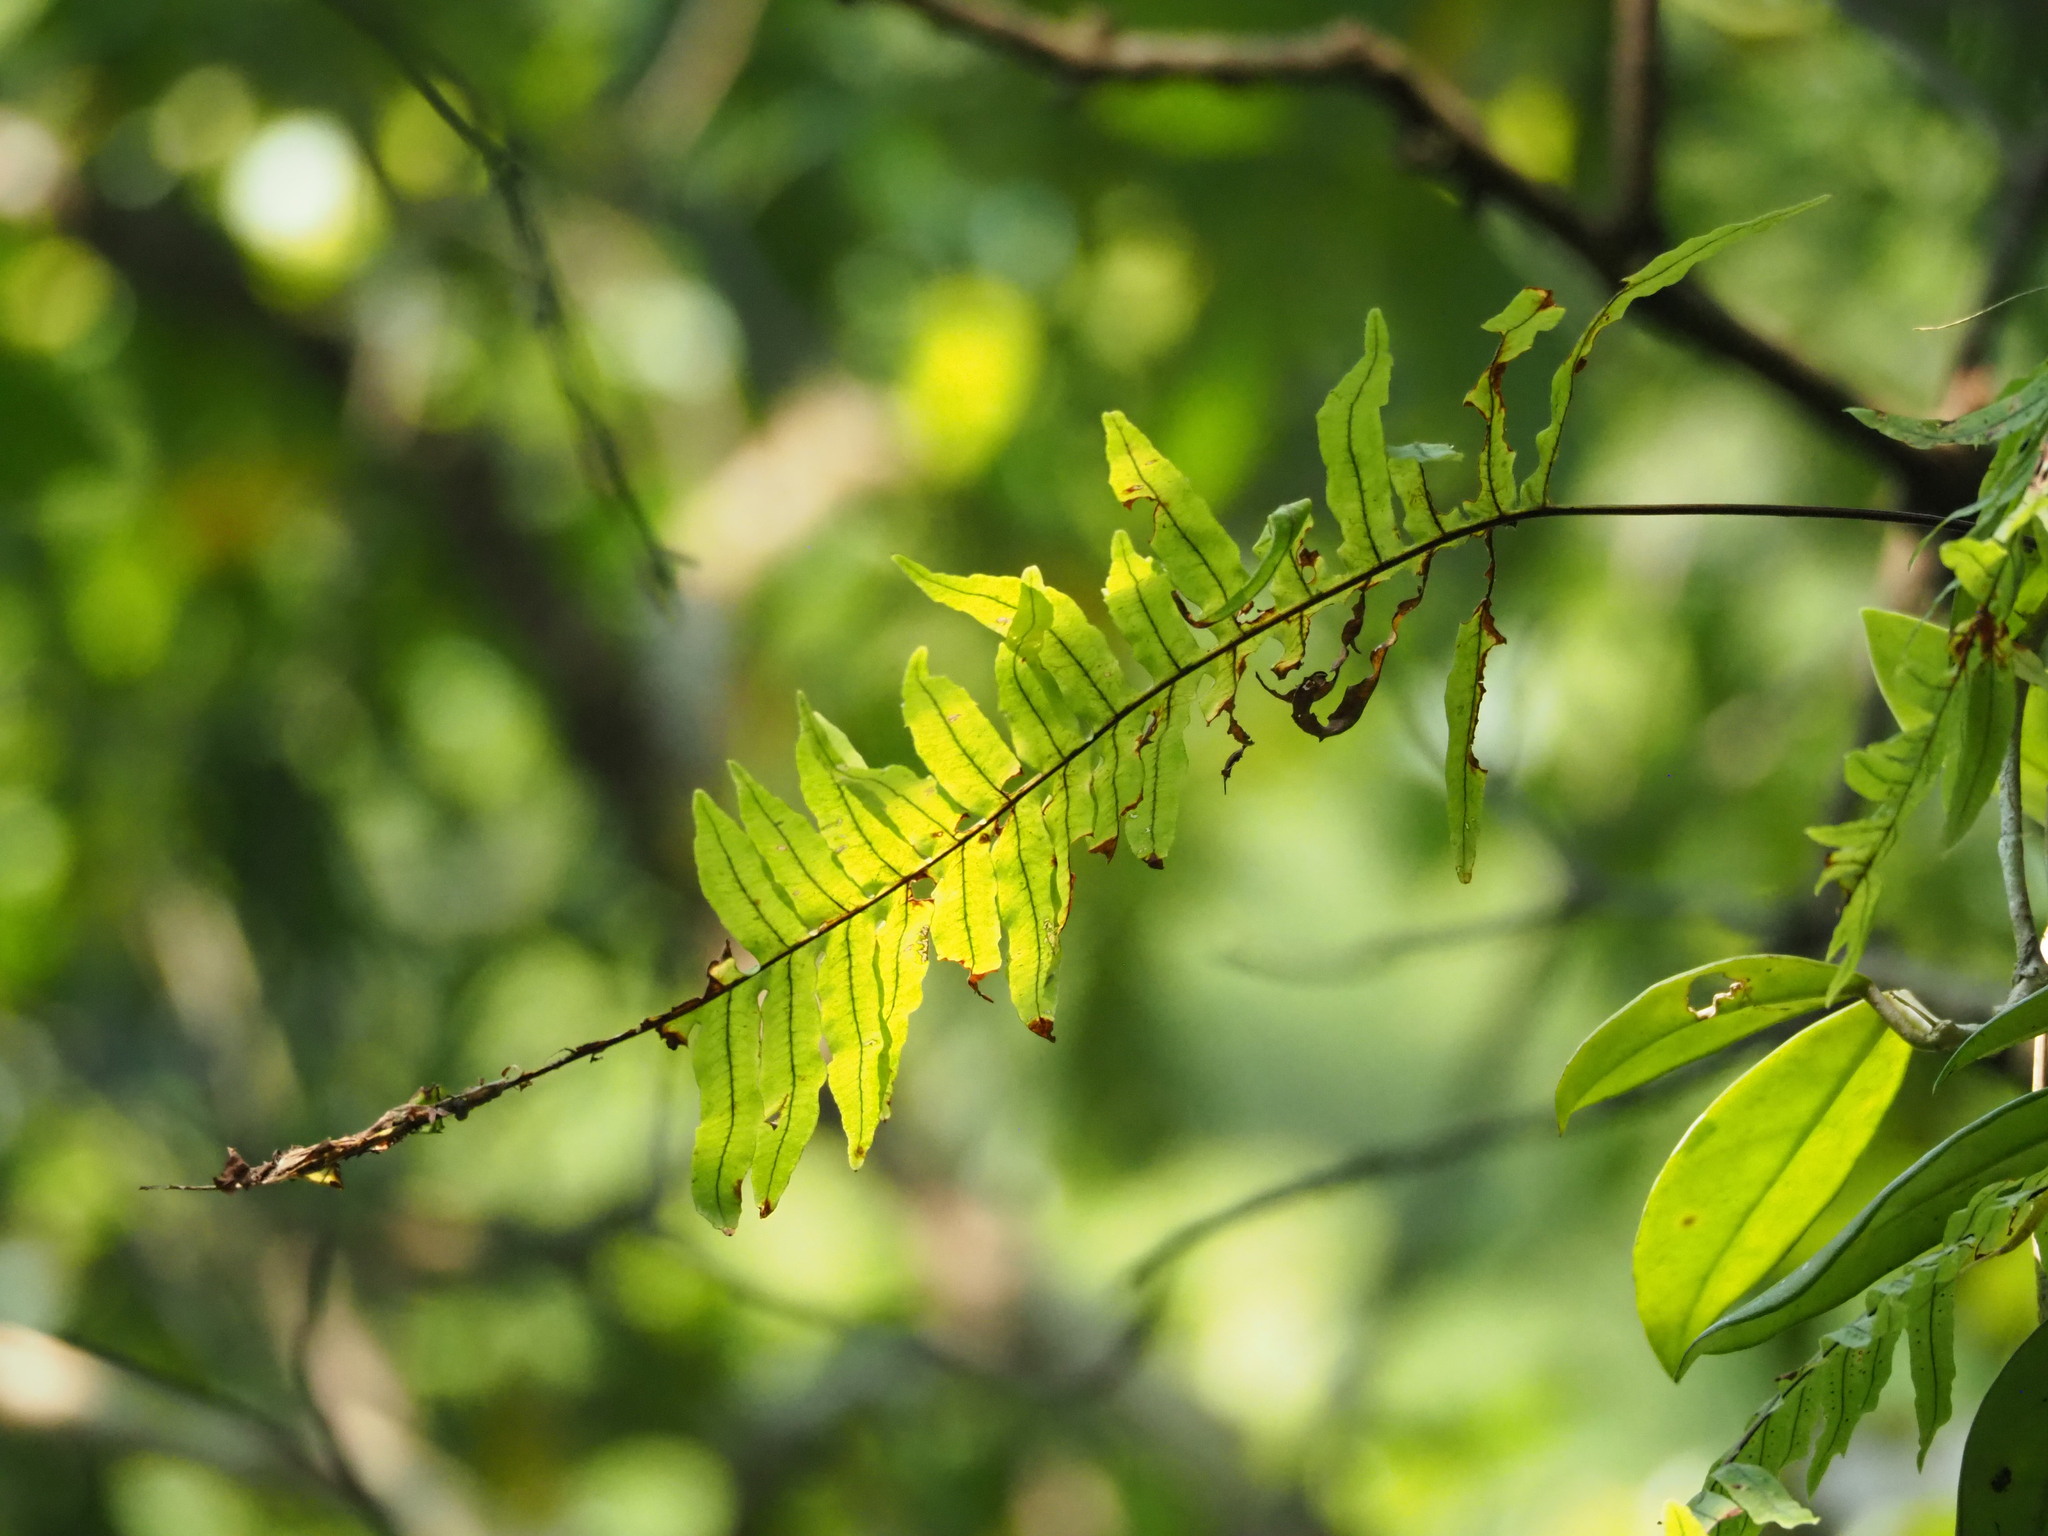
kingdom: Plantae
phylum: Tracheophyta
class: Polypodiopsida
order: Polypodiales
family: Polypodiaceae
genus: Goniophlebium
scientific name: Goniophlebium formosanum
